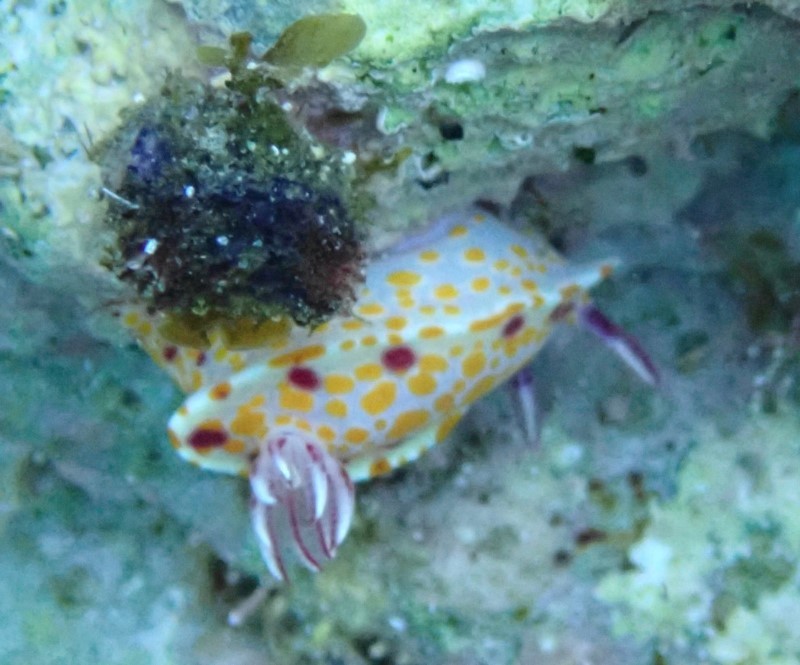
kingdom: Animalia
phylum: Mollusca
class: Gastropoda
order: Nudibranchia
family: Chromodorididae
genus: Ceratosoma
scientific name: Ceratosoma amoenum
